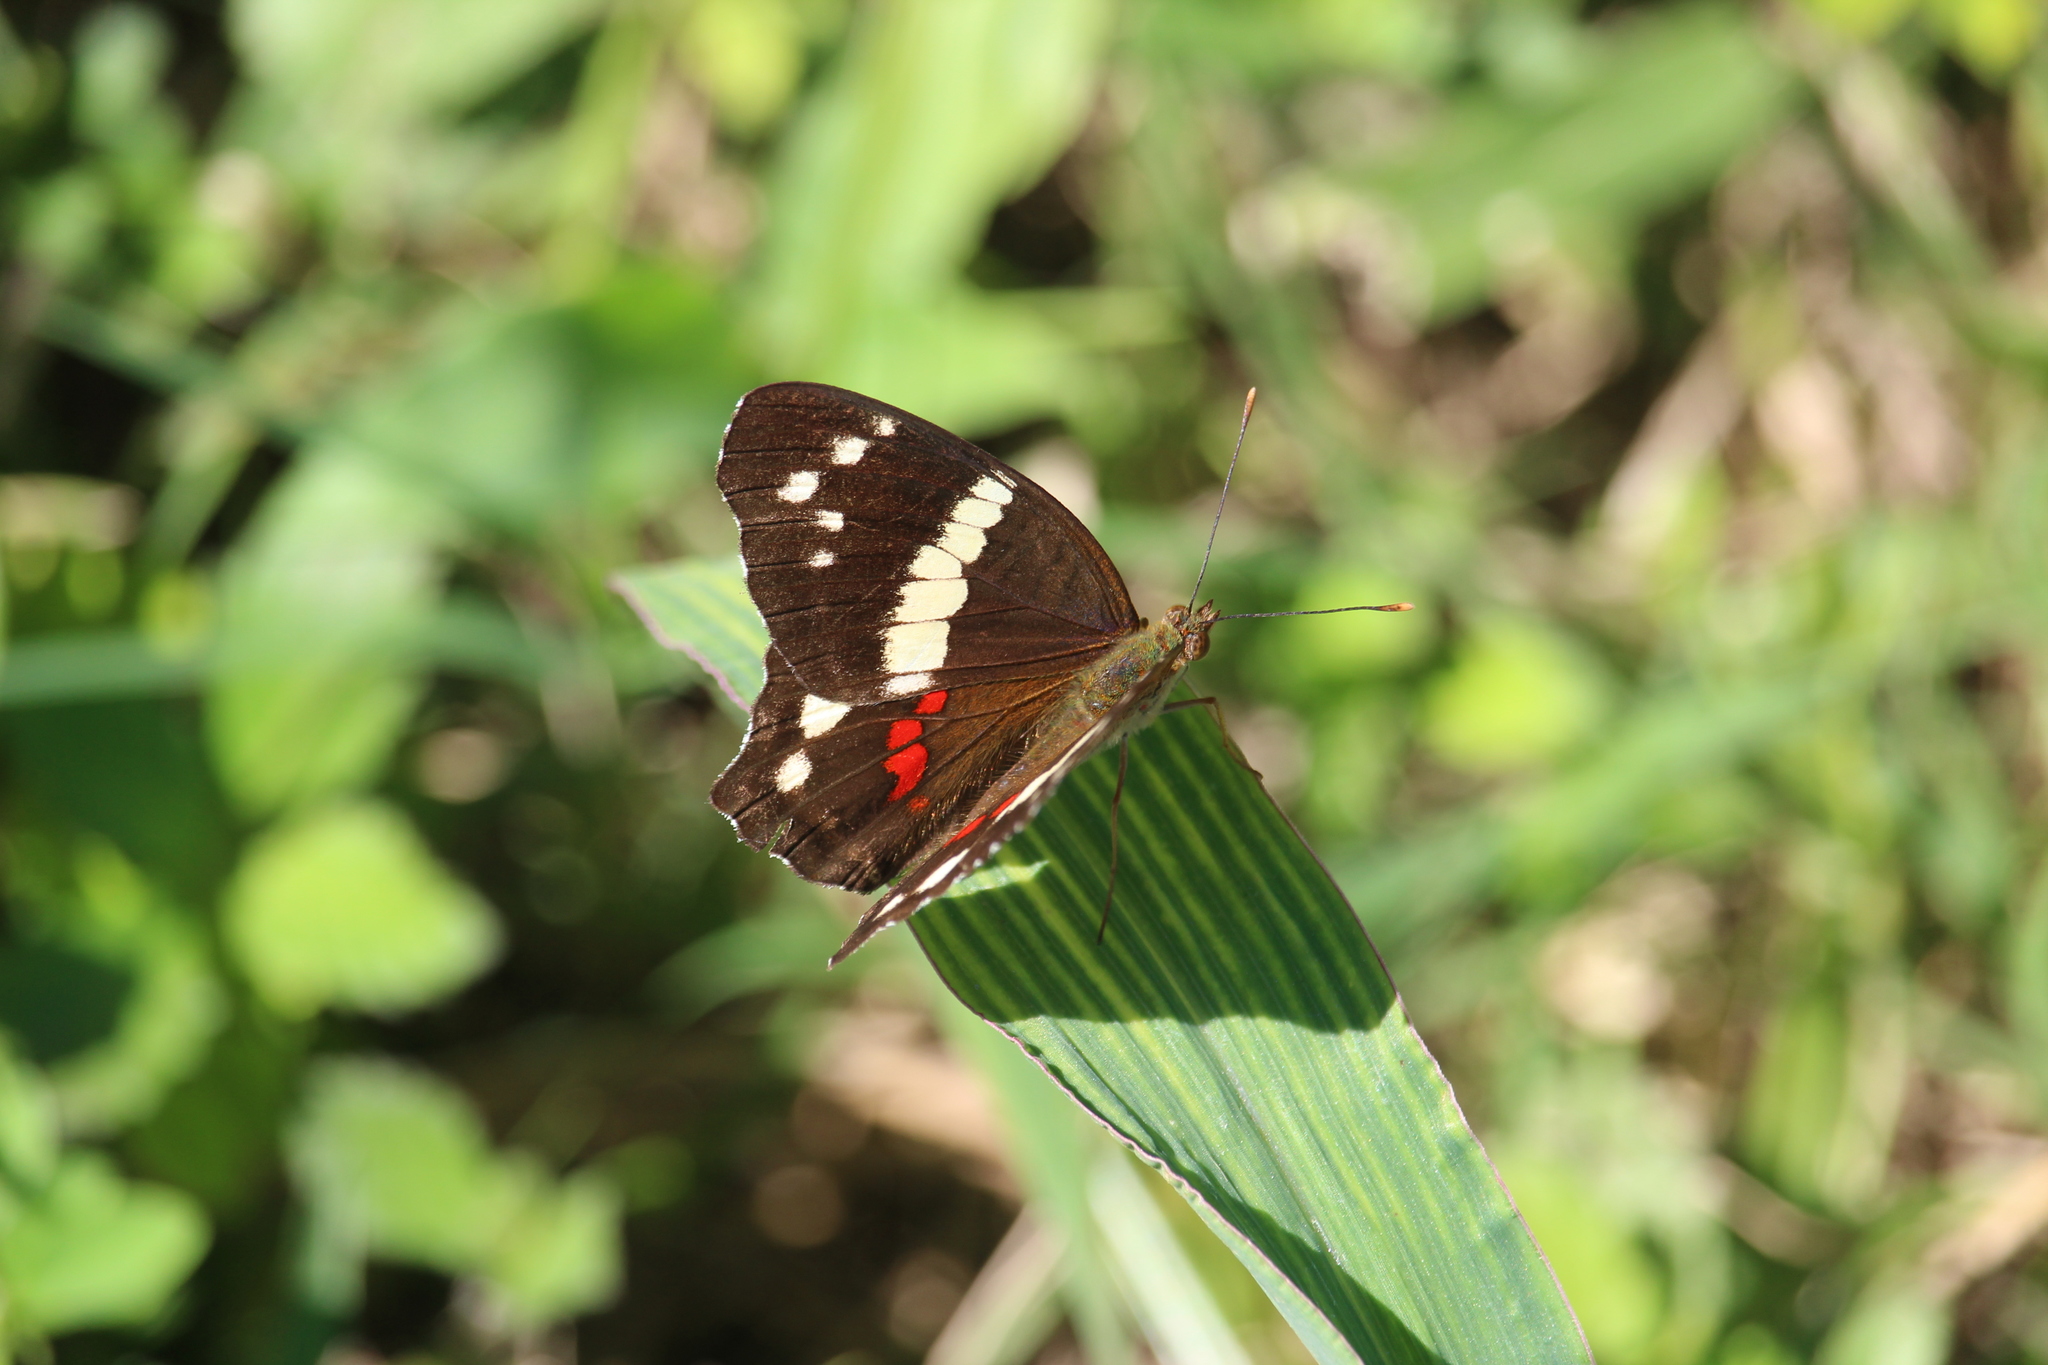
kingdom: Animalia
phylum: Arthropoda
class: Insecta
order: Lepidoptera
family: Nymphalidae
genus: Anartia
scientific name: Anartia fatima
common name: Banded peacock
